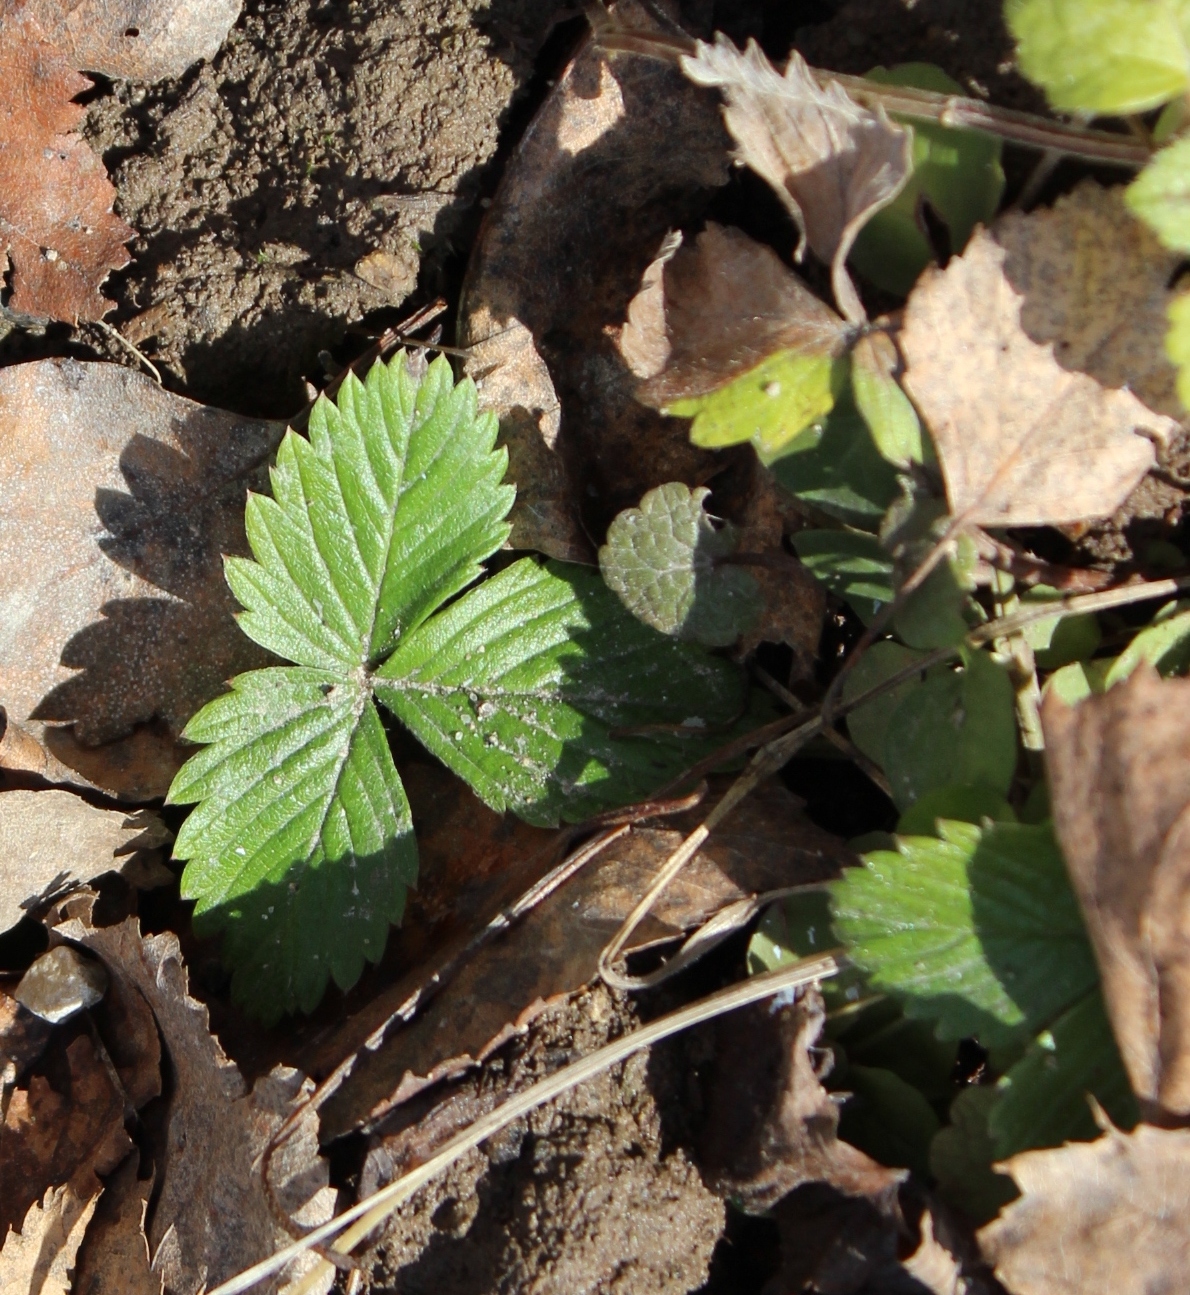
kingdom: Plantae
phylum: Tracheophyta
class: Magnoliopsida
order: Rosales
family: Rosaceae
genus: Fragaria
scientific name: Fragaria vesca
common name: Wild strawberry
